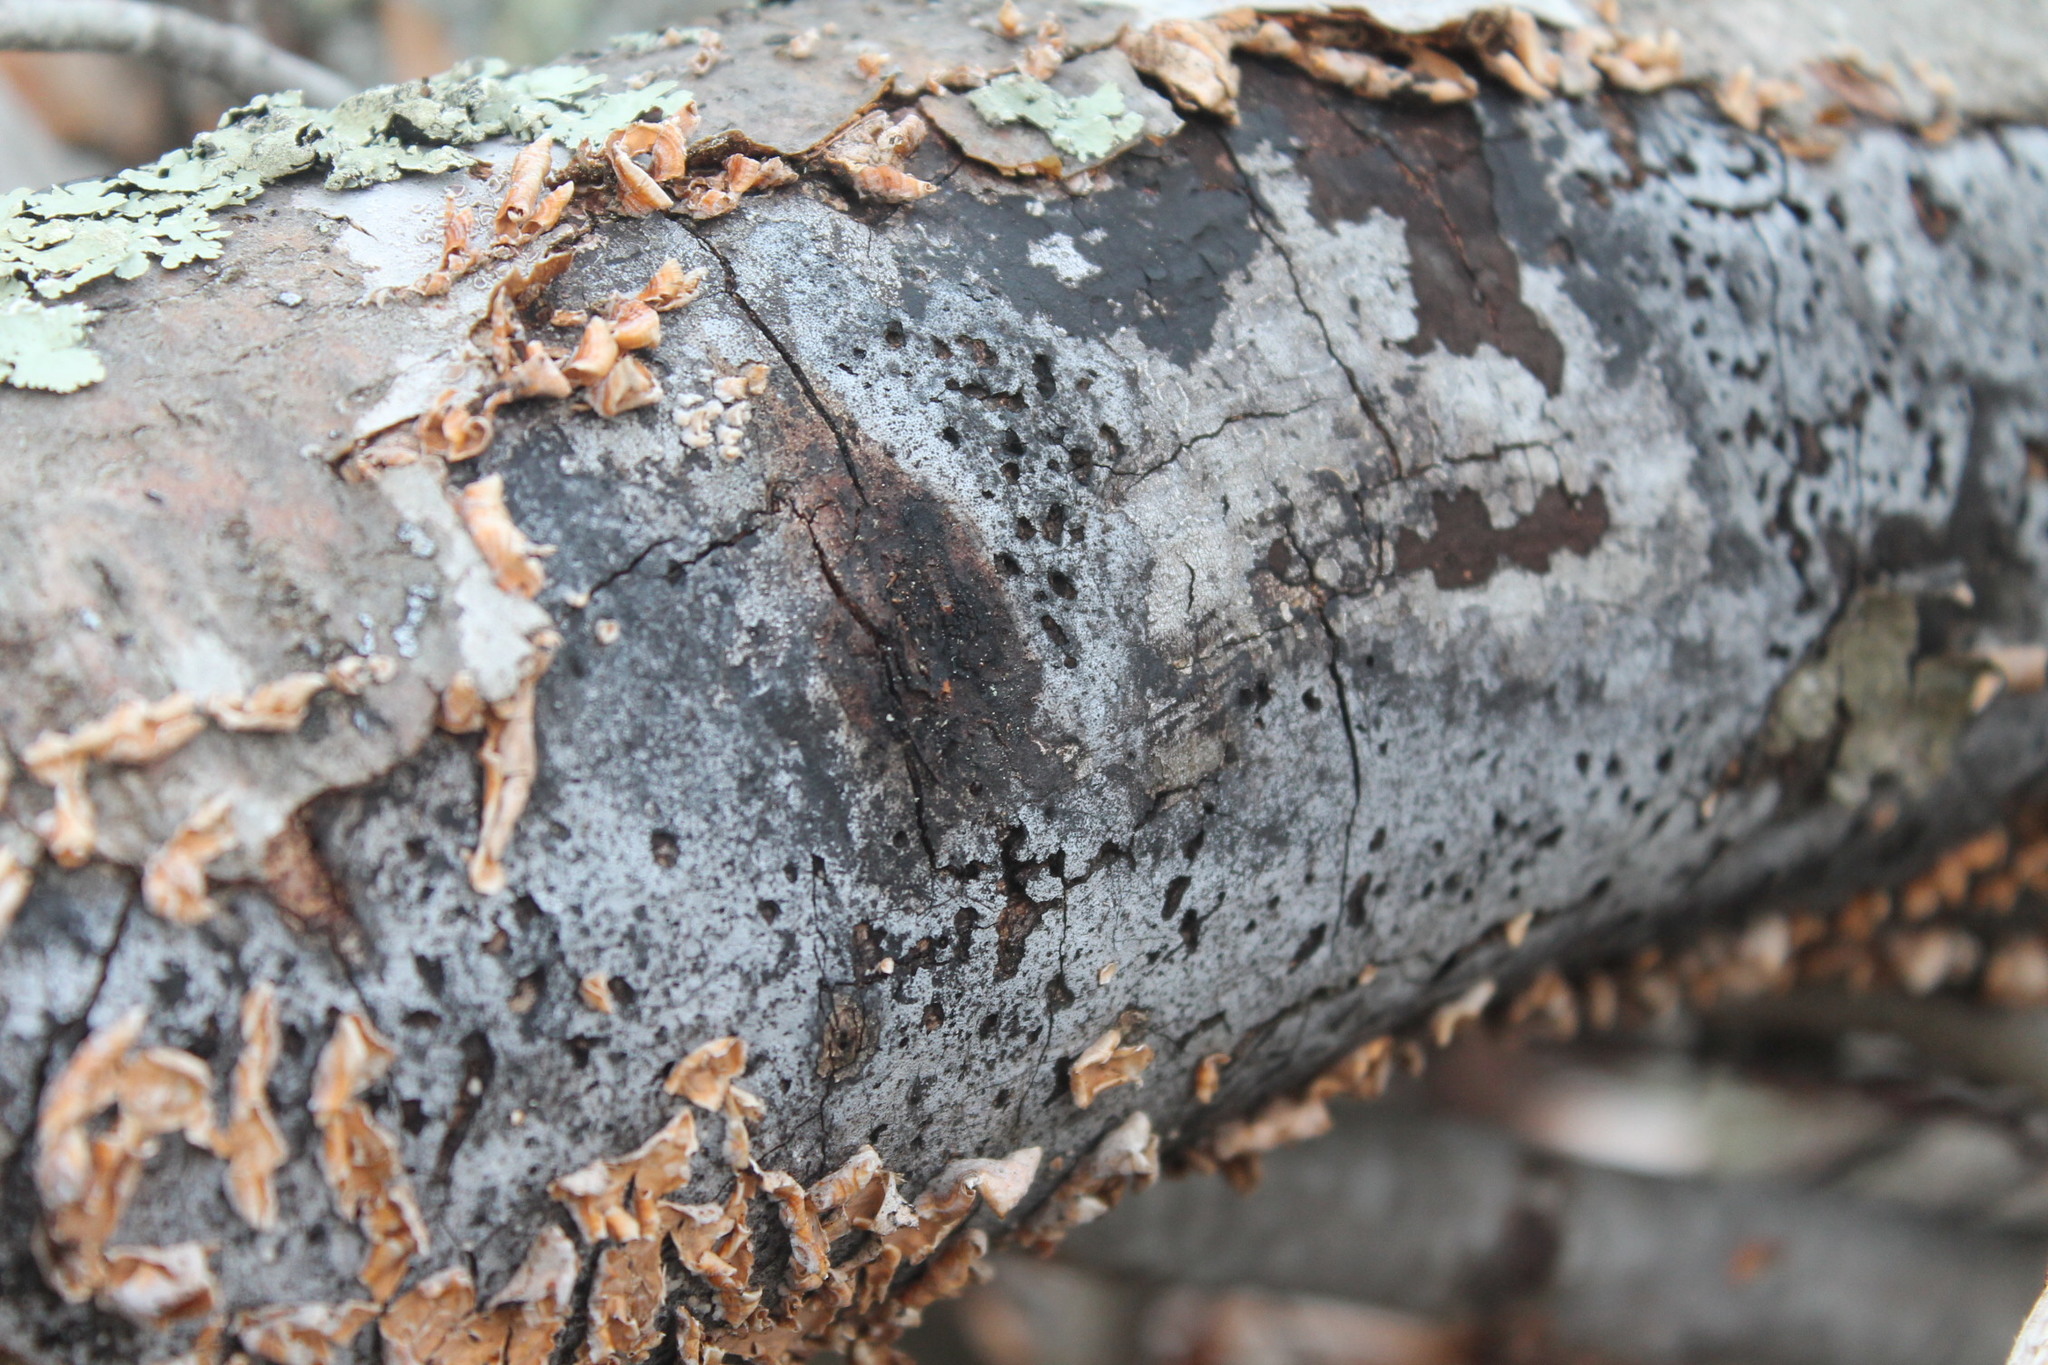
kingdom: Fungi
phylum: Ascomycota
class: Sordariomycetes
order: Xylariales
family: Graphostromataceae
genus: Biscogniauxia
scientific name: Biscogniauxia atropunctata
